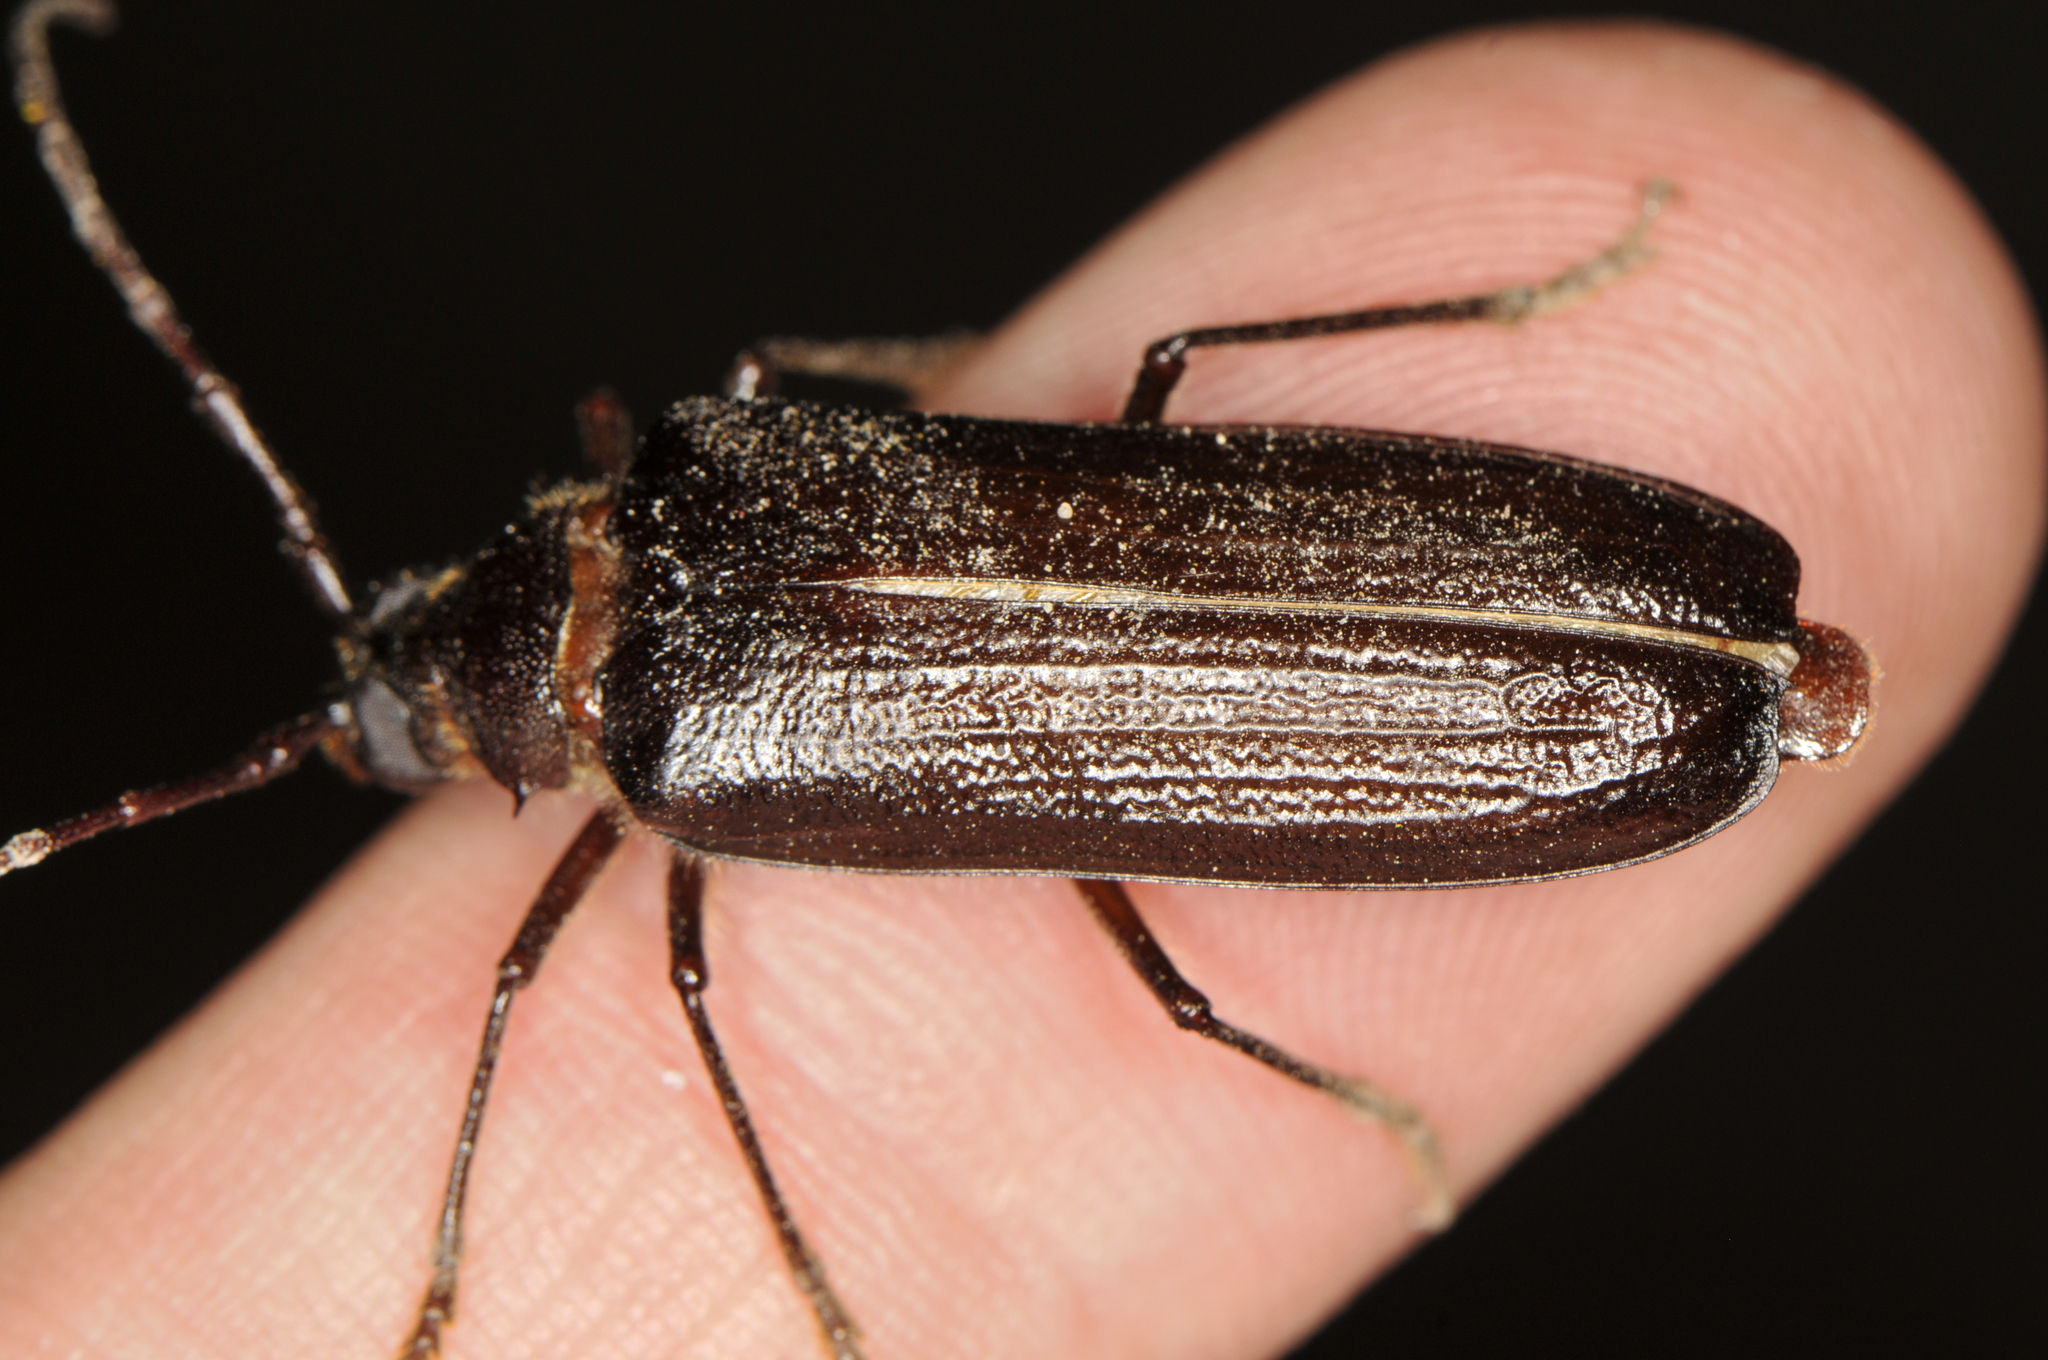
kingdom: Animalia
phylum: Arthropoda
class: Insecta
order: Coleoptera
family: Cerambycidae
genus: Tragosoma
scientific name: Tragosoma harrisii
